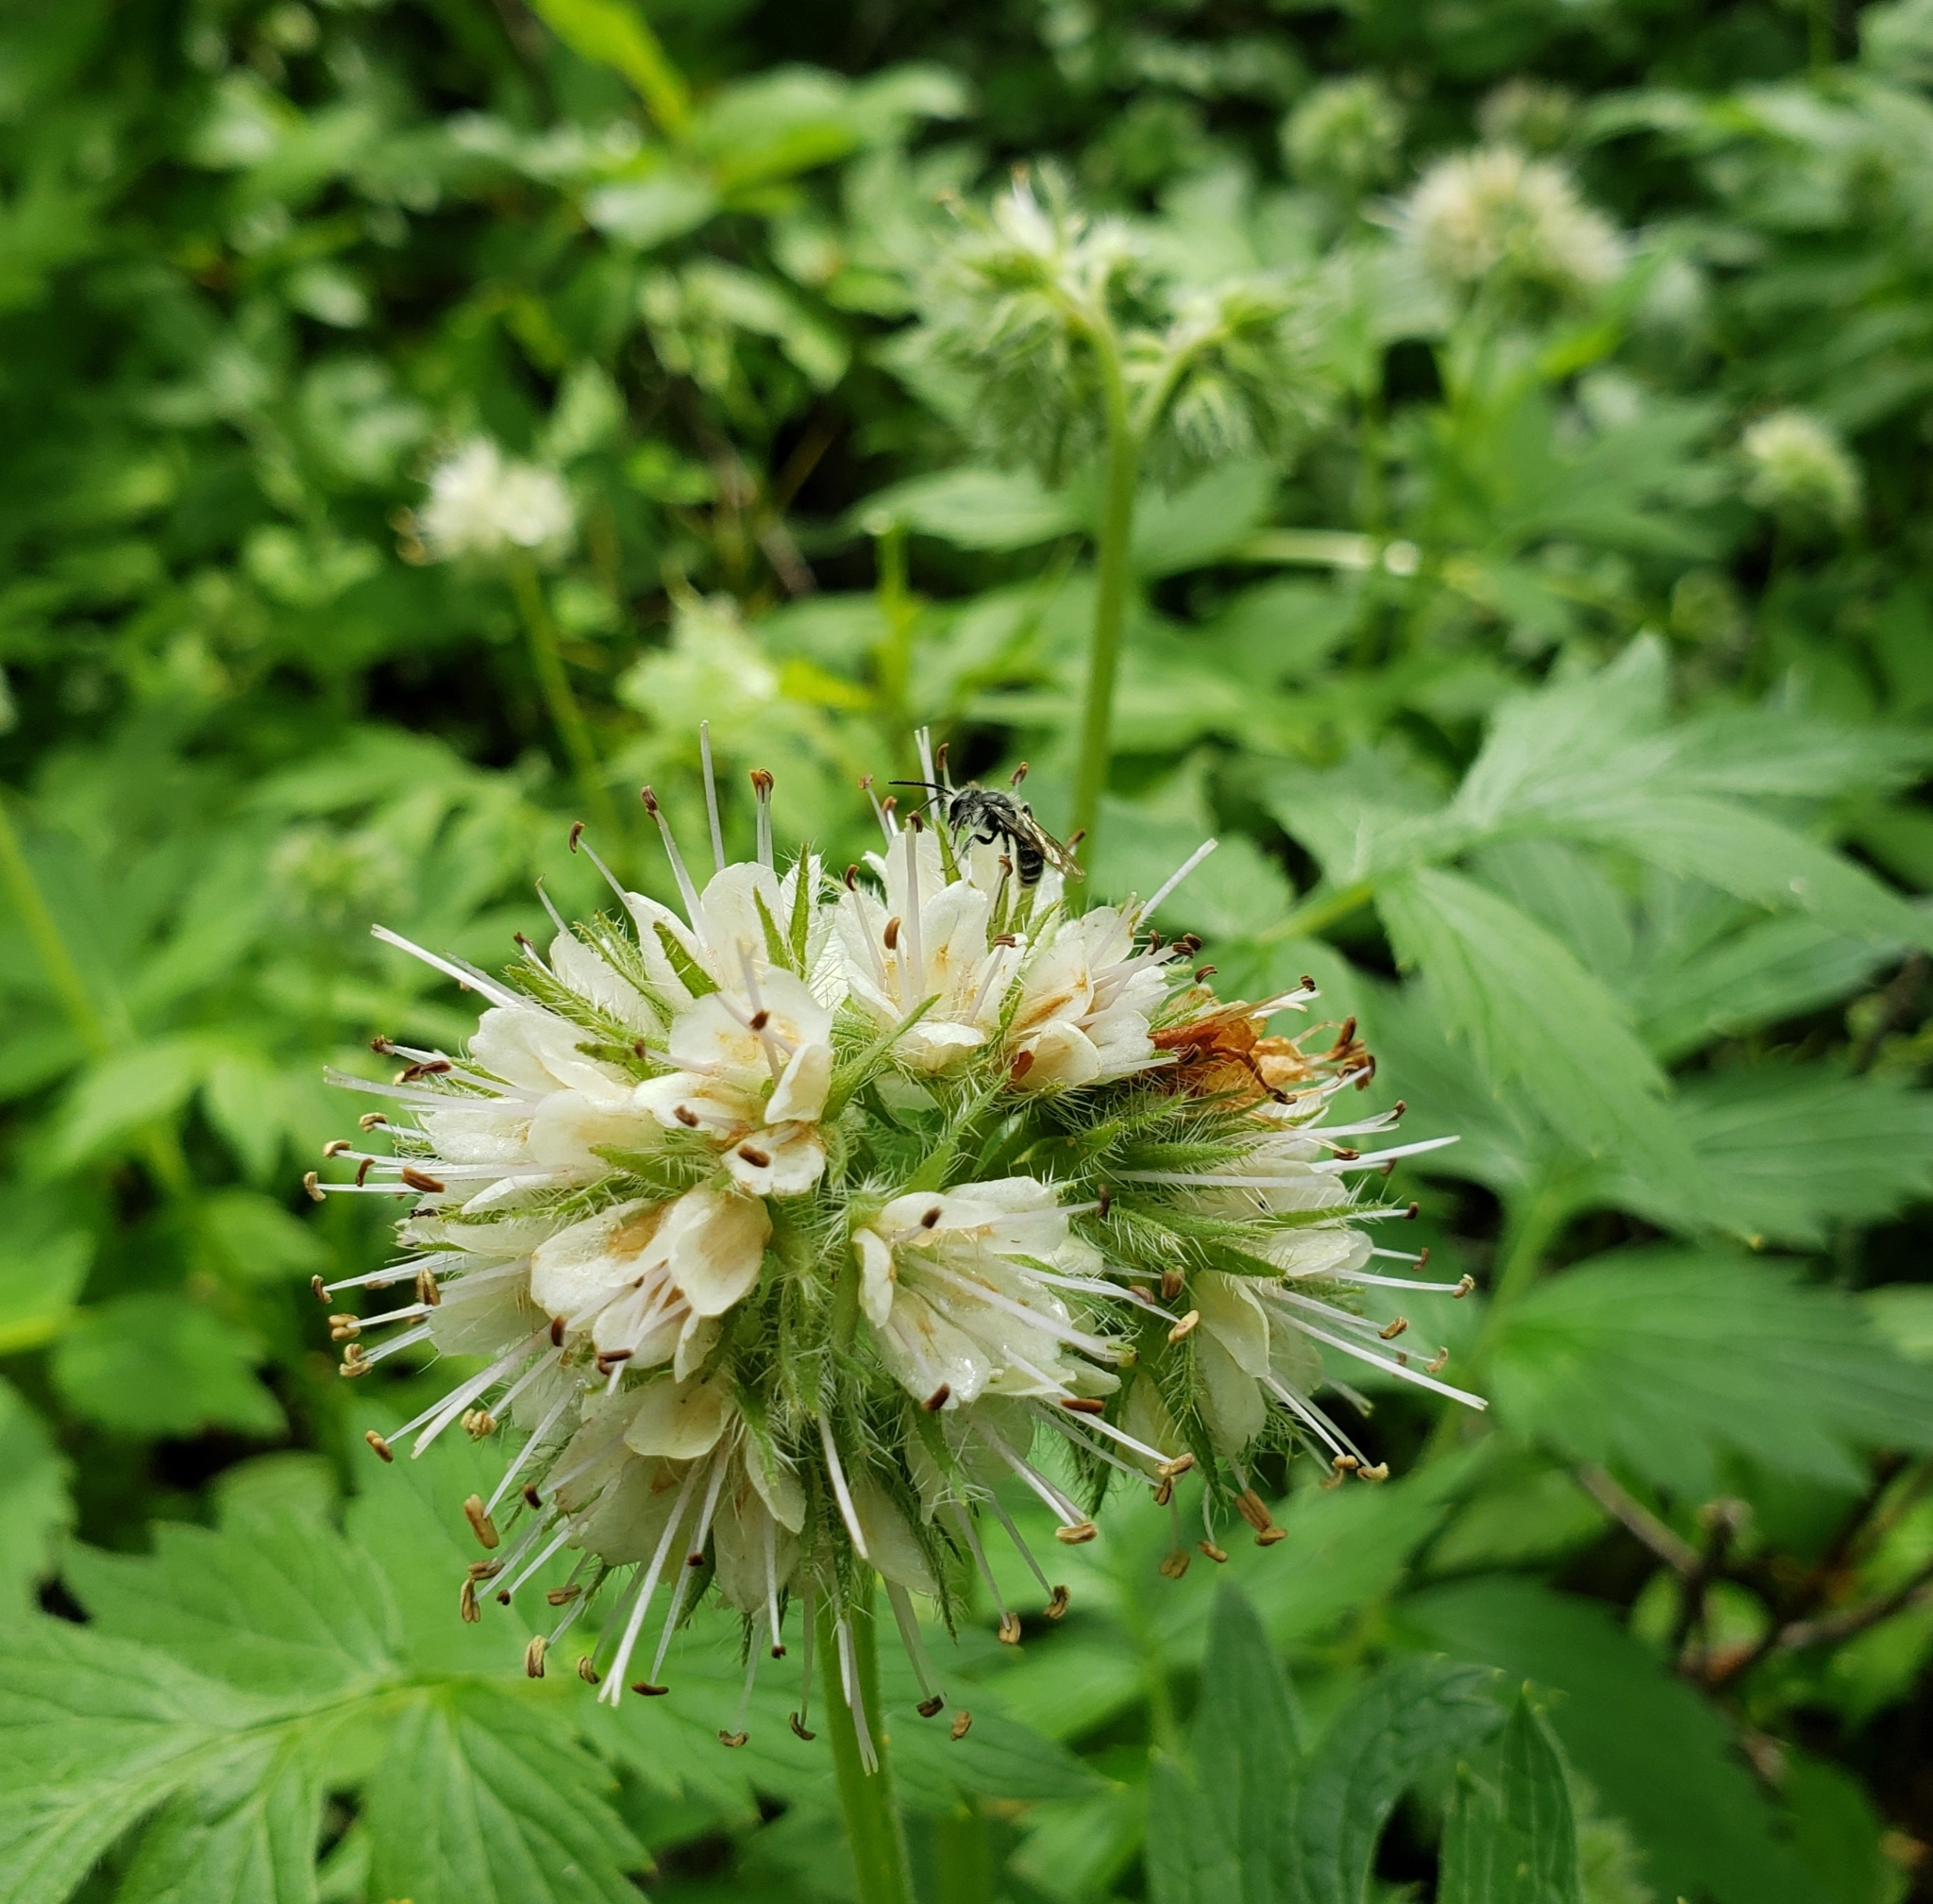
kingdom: Plantae
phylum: Tracheophyta
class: Magnoliopsida
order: Boraginales
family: Hydrophyllaceae
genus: Hydrophyllum
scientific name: Hydrophyllum fendleri
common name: Fendler's waterleaf
